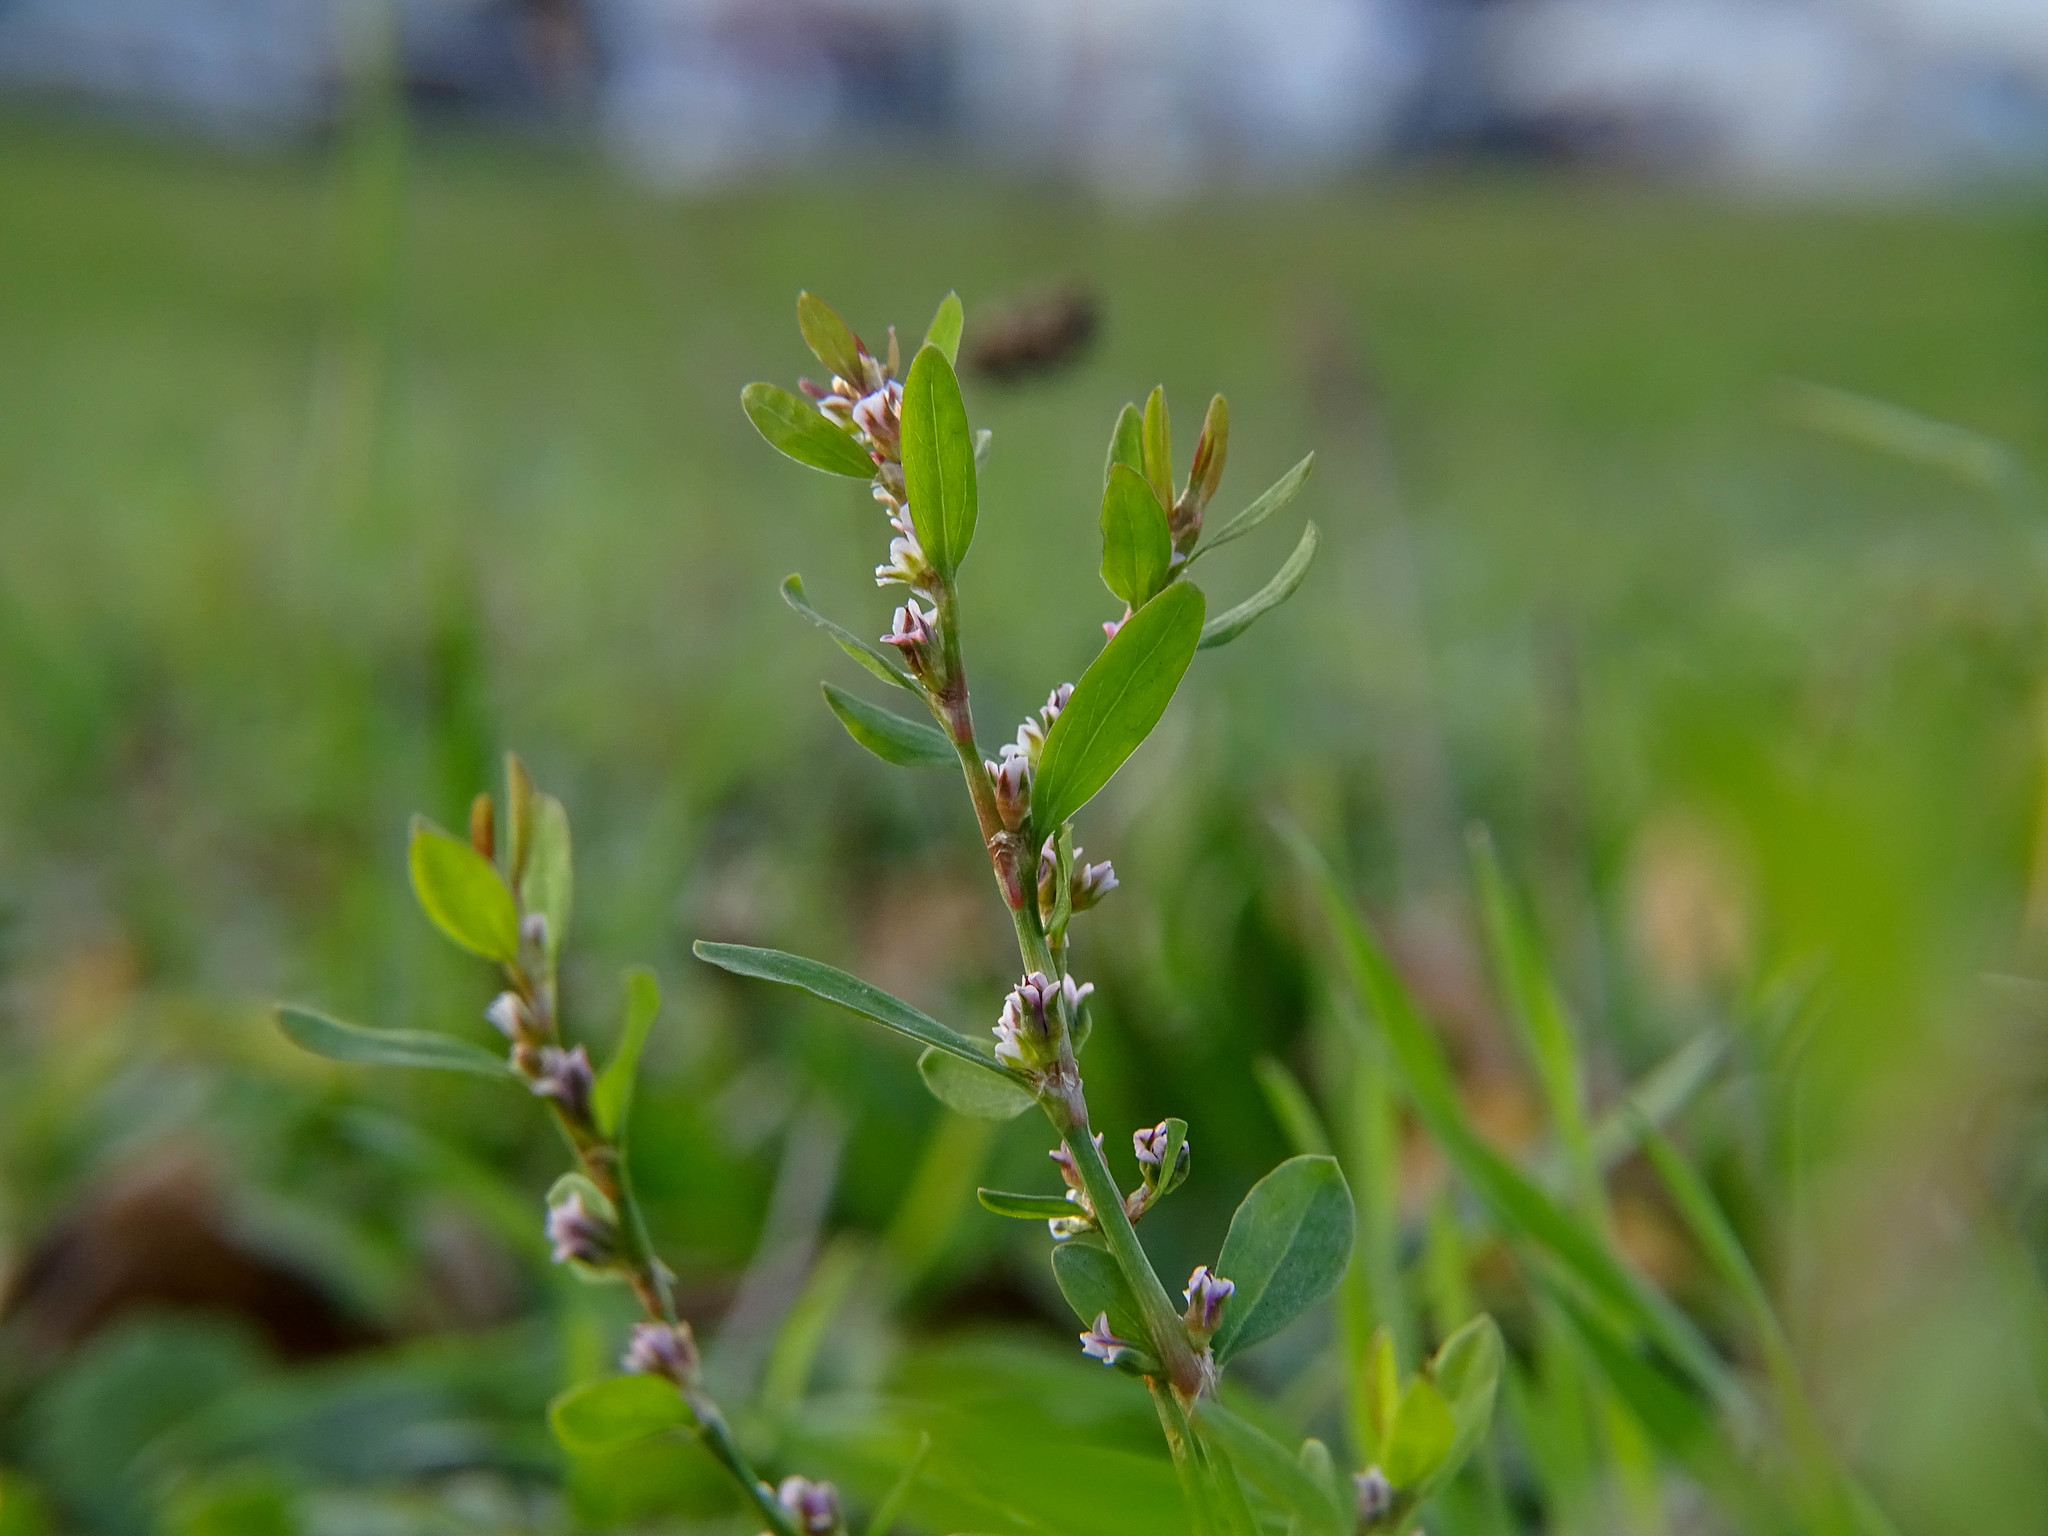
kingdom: Plantae
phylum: Tracheophyta
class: Magnoliopsida
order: Caryophyllales
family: Polygonaceae
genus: Polygonum
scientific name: Polygonum aviculare
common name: Prostrate knotweed
